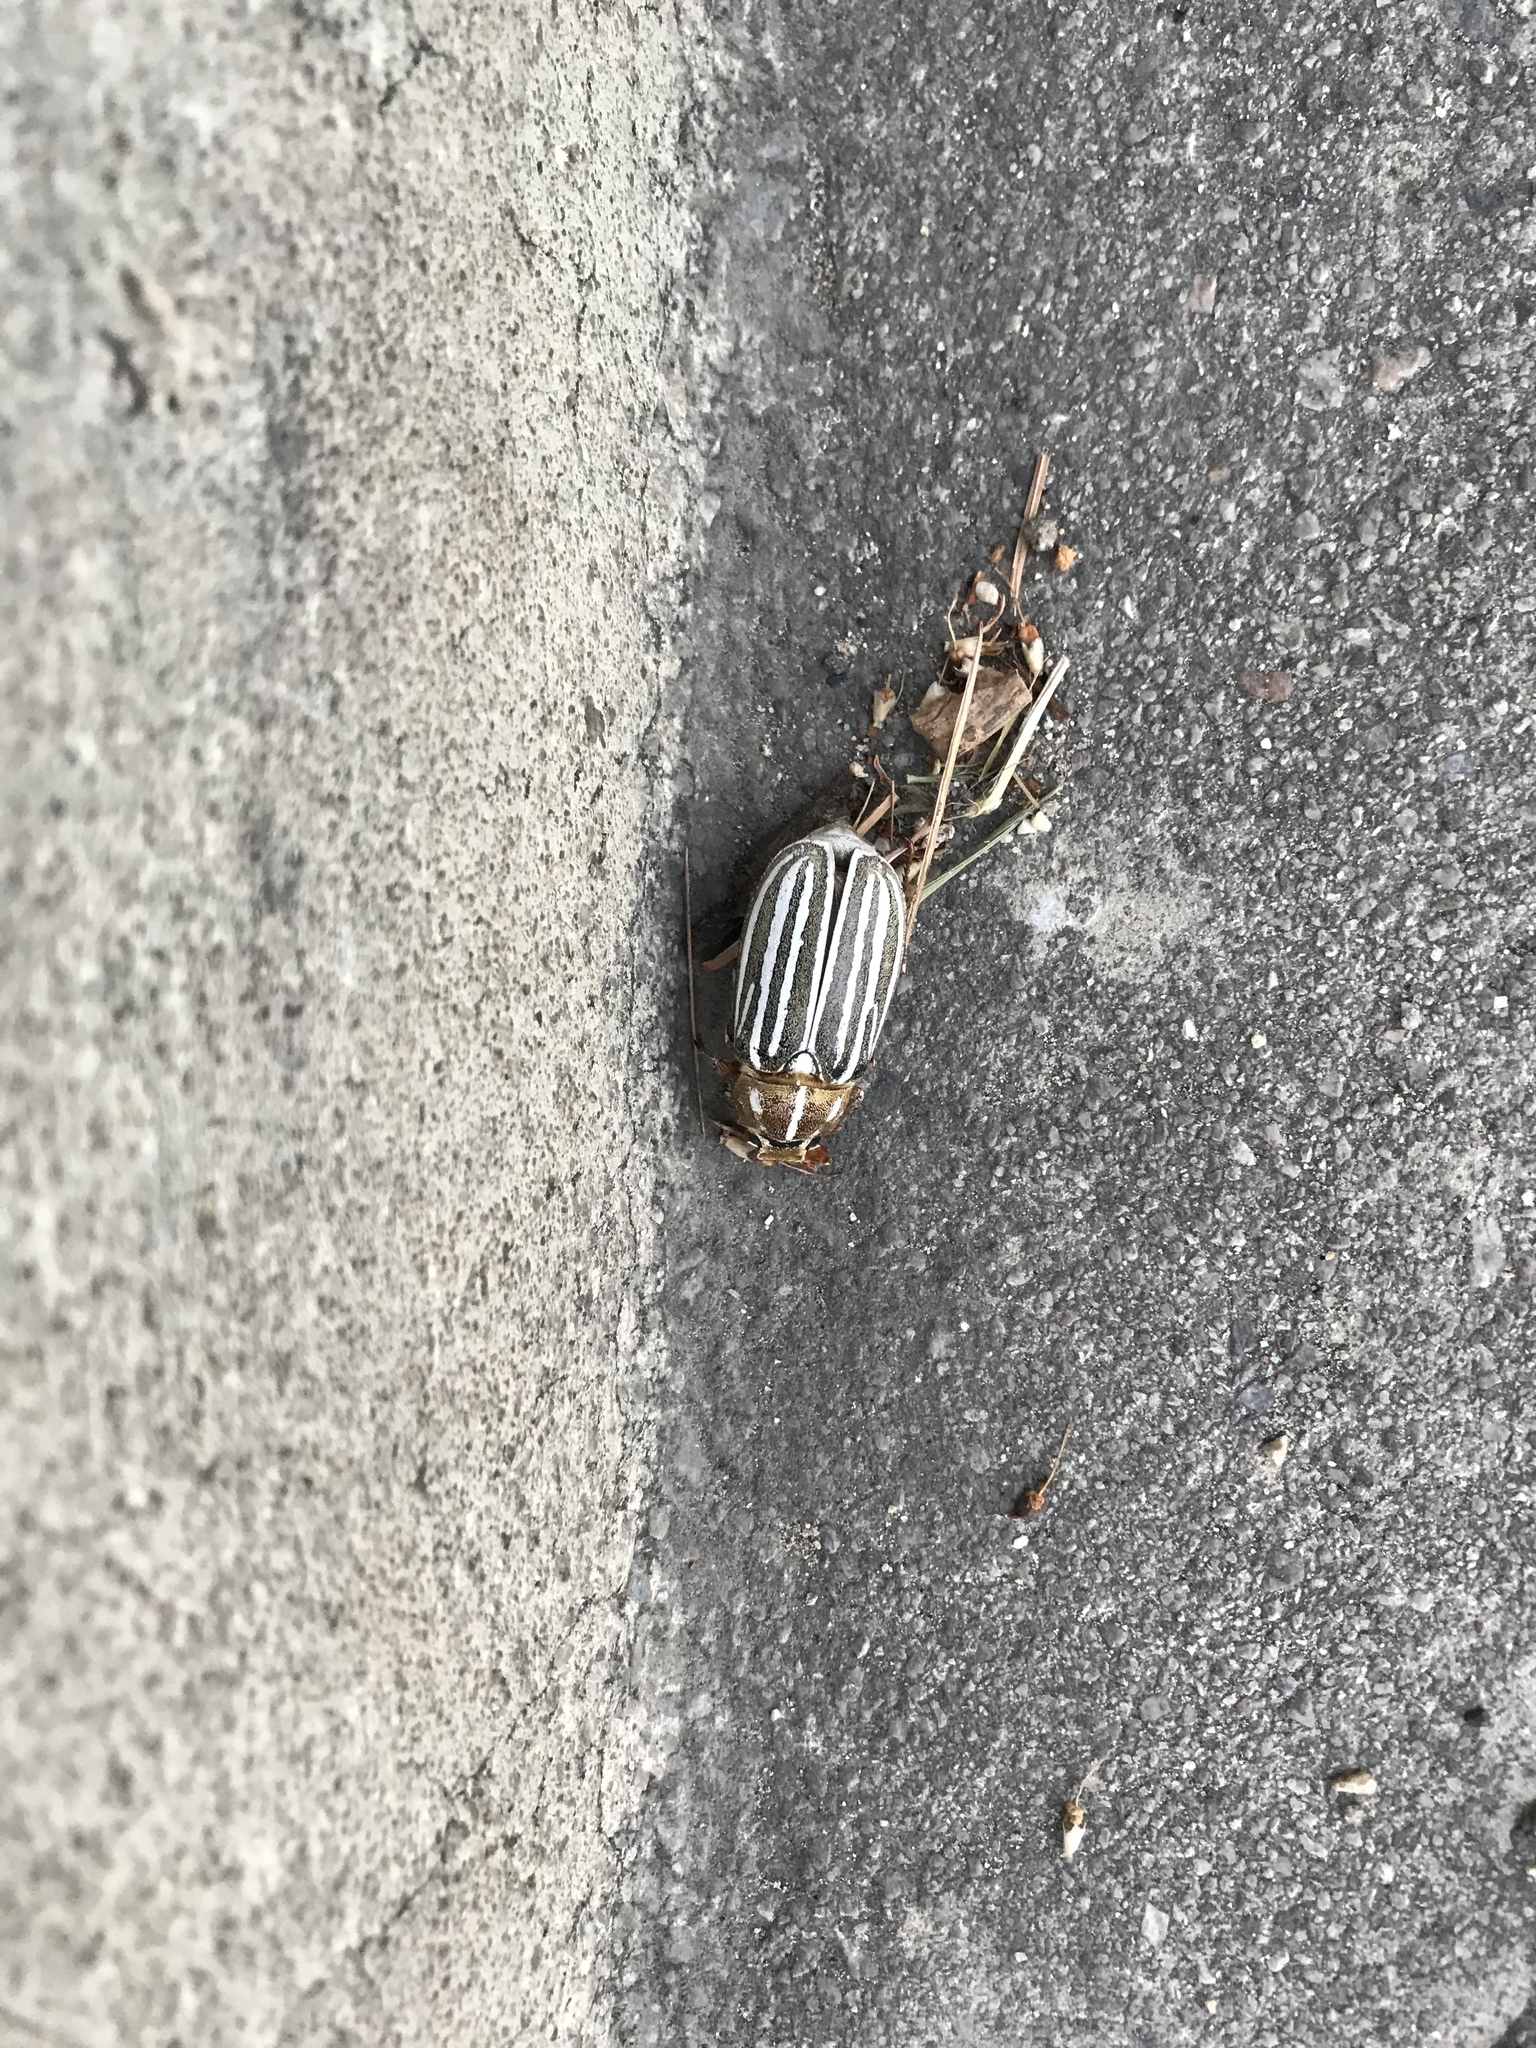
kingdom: Animalia
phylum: Arthropoda
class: Insecta
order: Coleoptera
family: Scarabaeidae
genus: Polyphylla
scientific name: Polyphylla decemlineata
